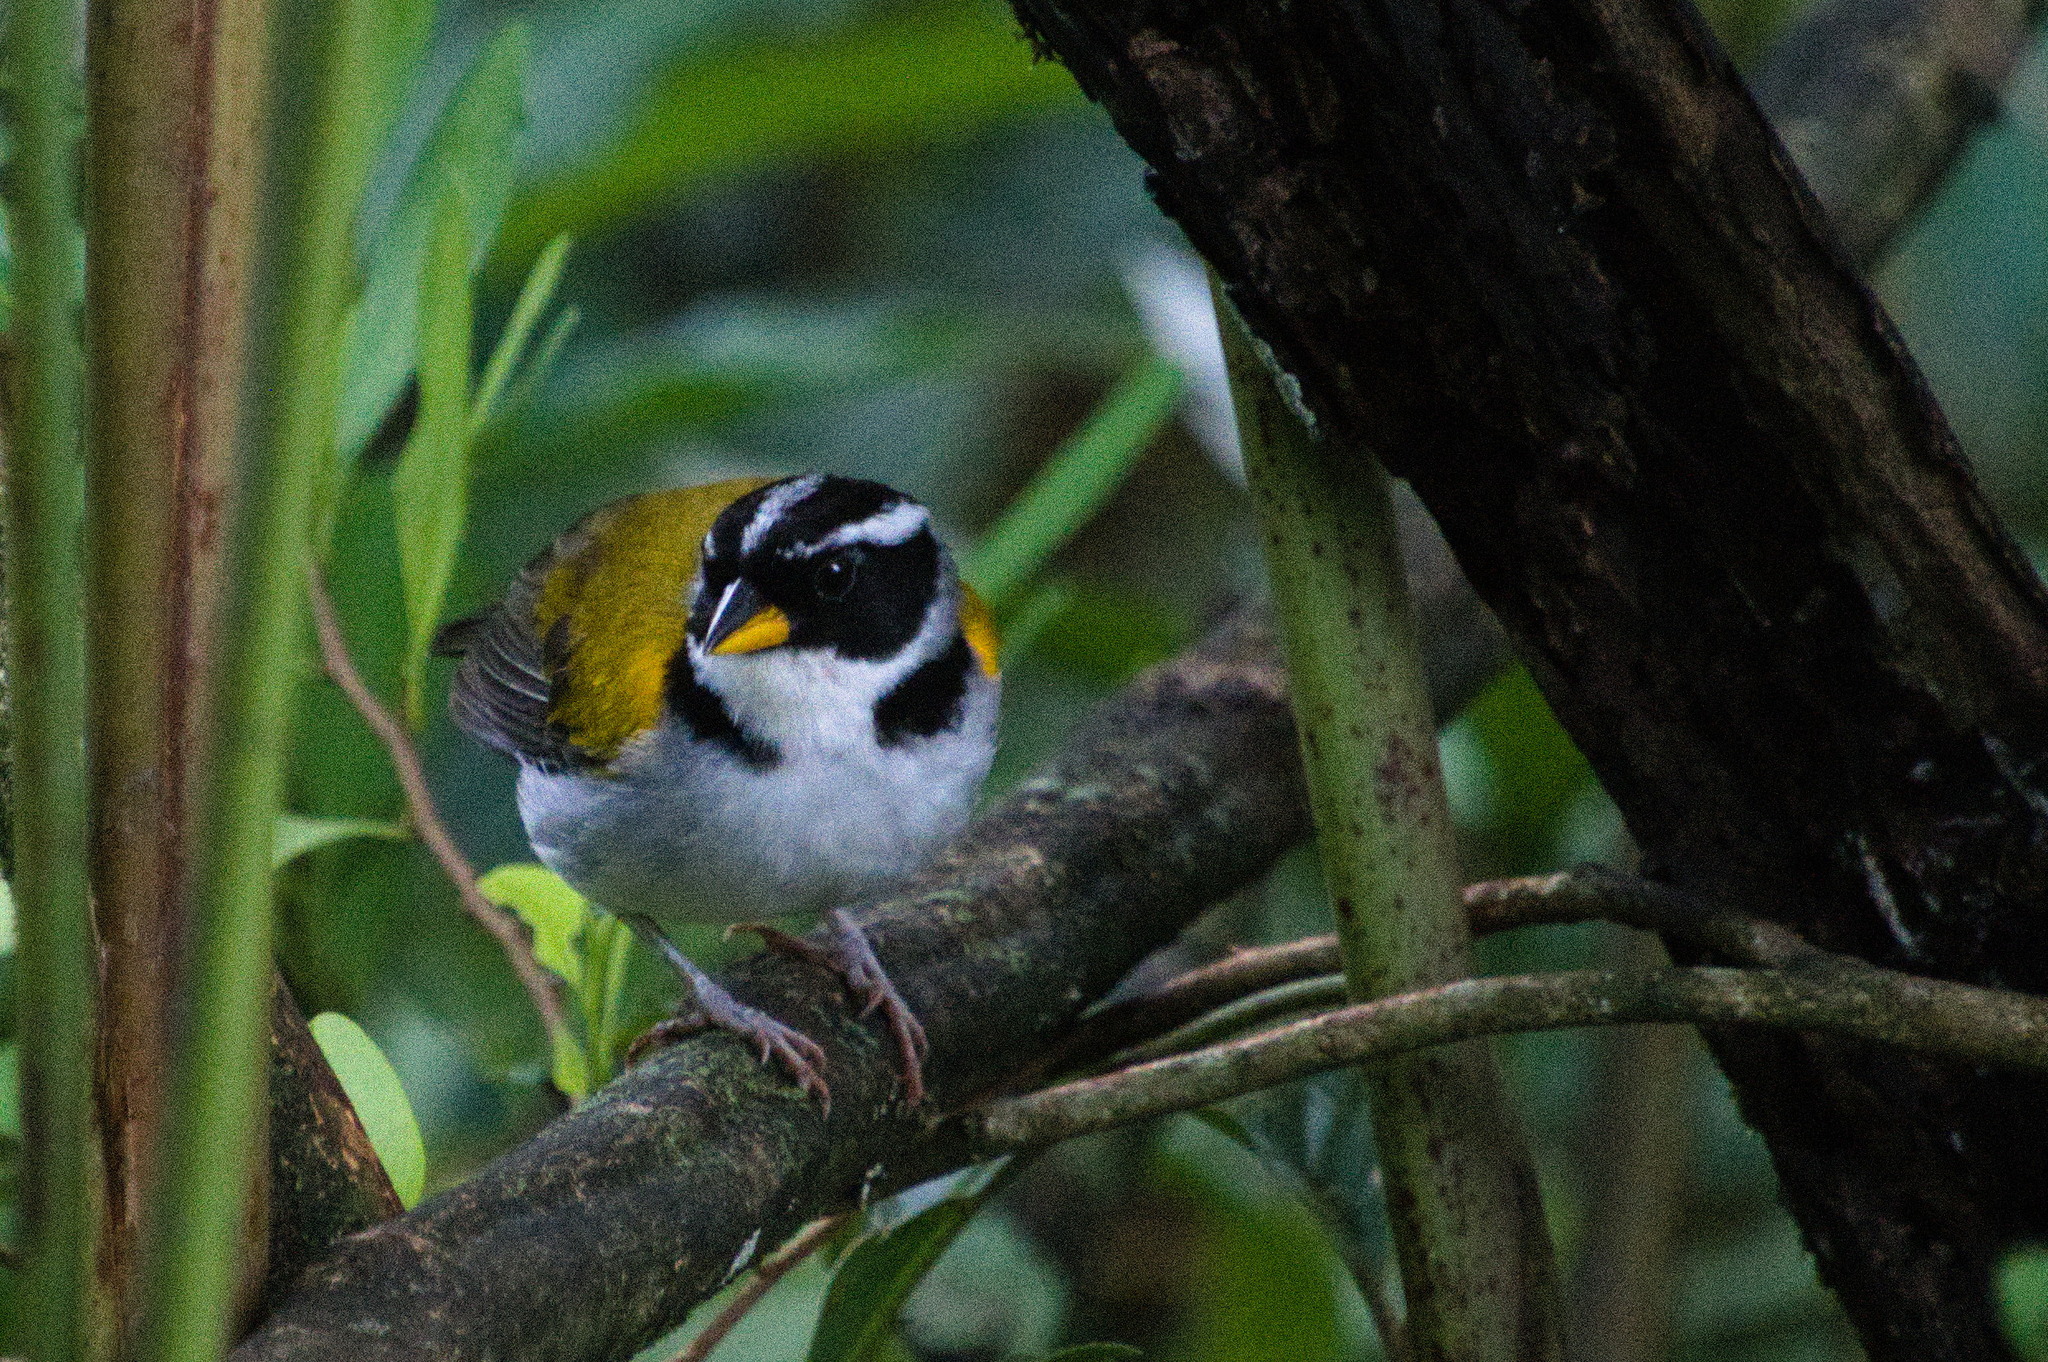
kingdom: Animalia
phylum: Chordata
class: Aves
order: Passeriformes
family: Passerellidae
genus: Arremon
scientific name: Arremon taciturnus
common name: Pectoral sparrow
